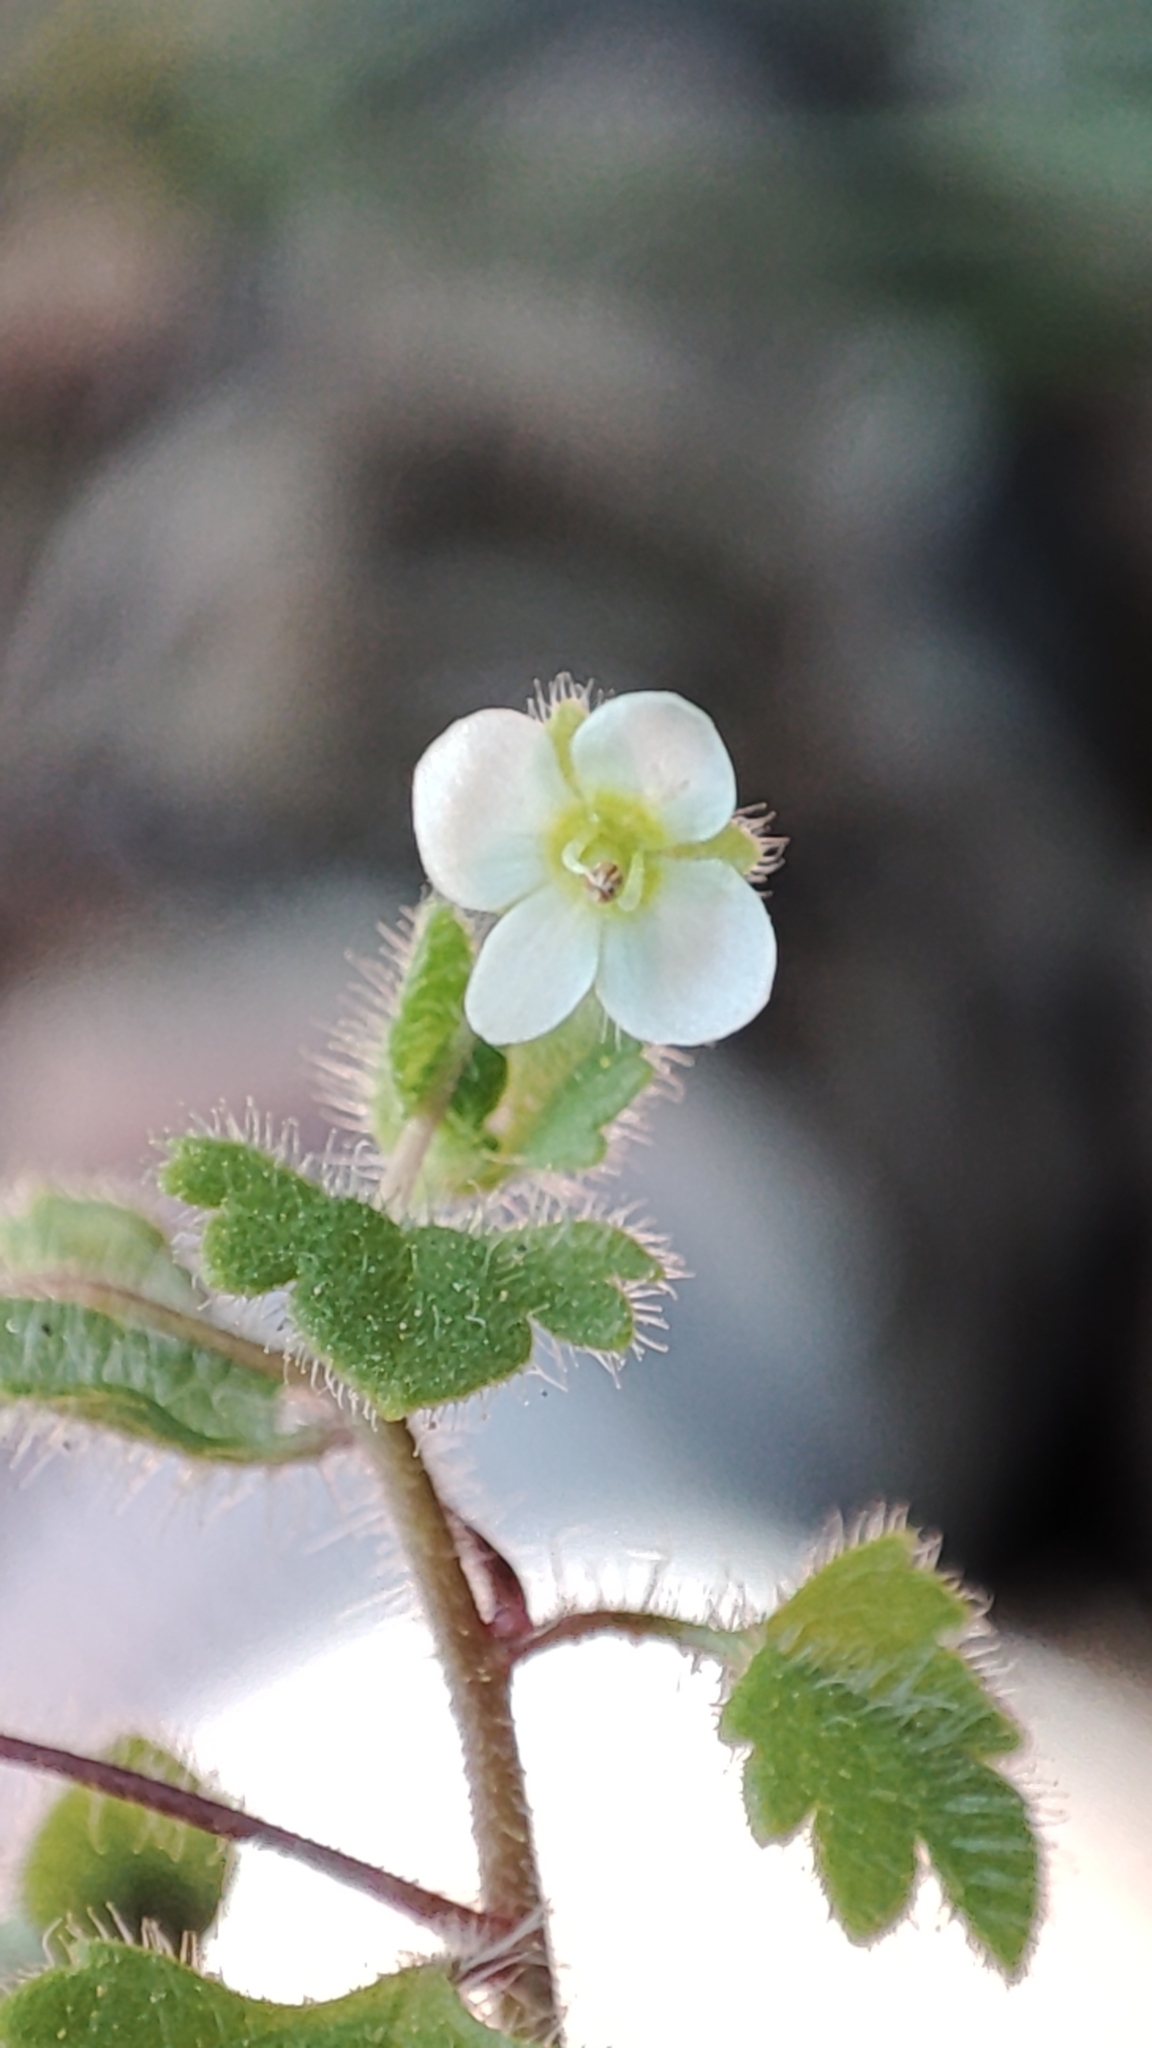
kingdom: Plantae
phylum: Tracheophyta
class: Magnoliopsida
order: Lamiales
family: Plantaginaceae
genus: Veronica
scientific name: Veronica cymbalaria
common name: Pale speedwell
